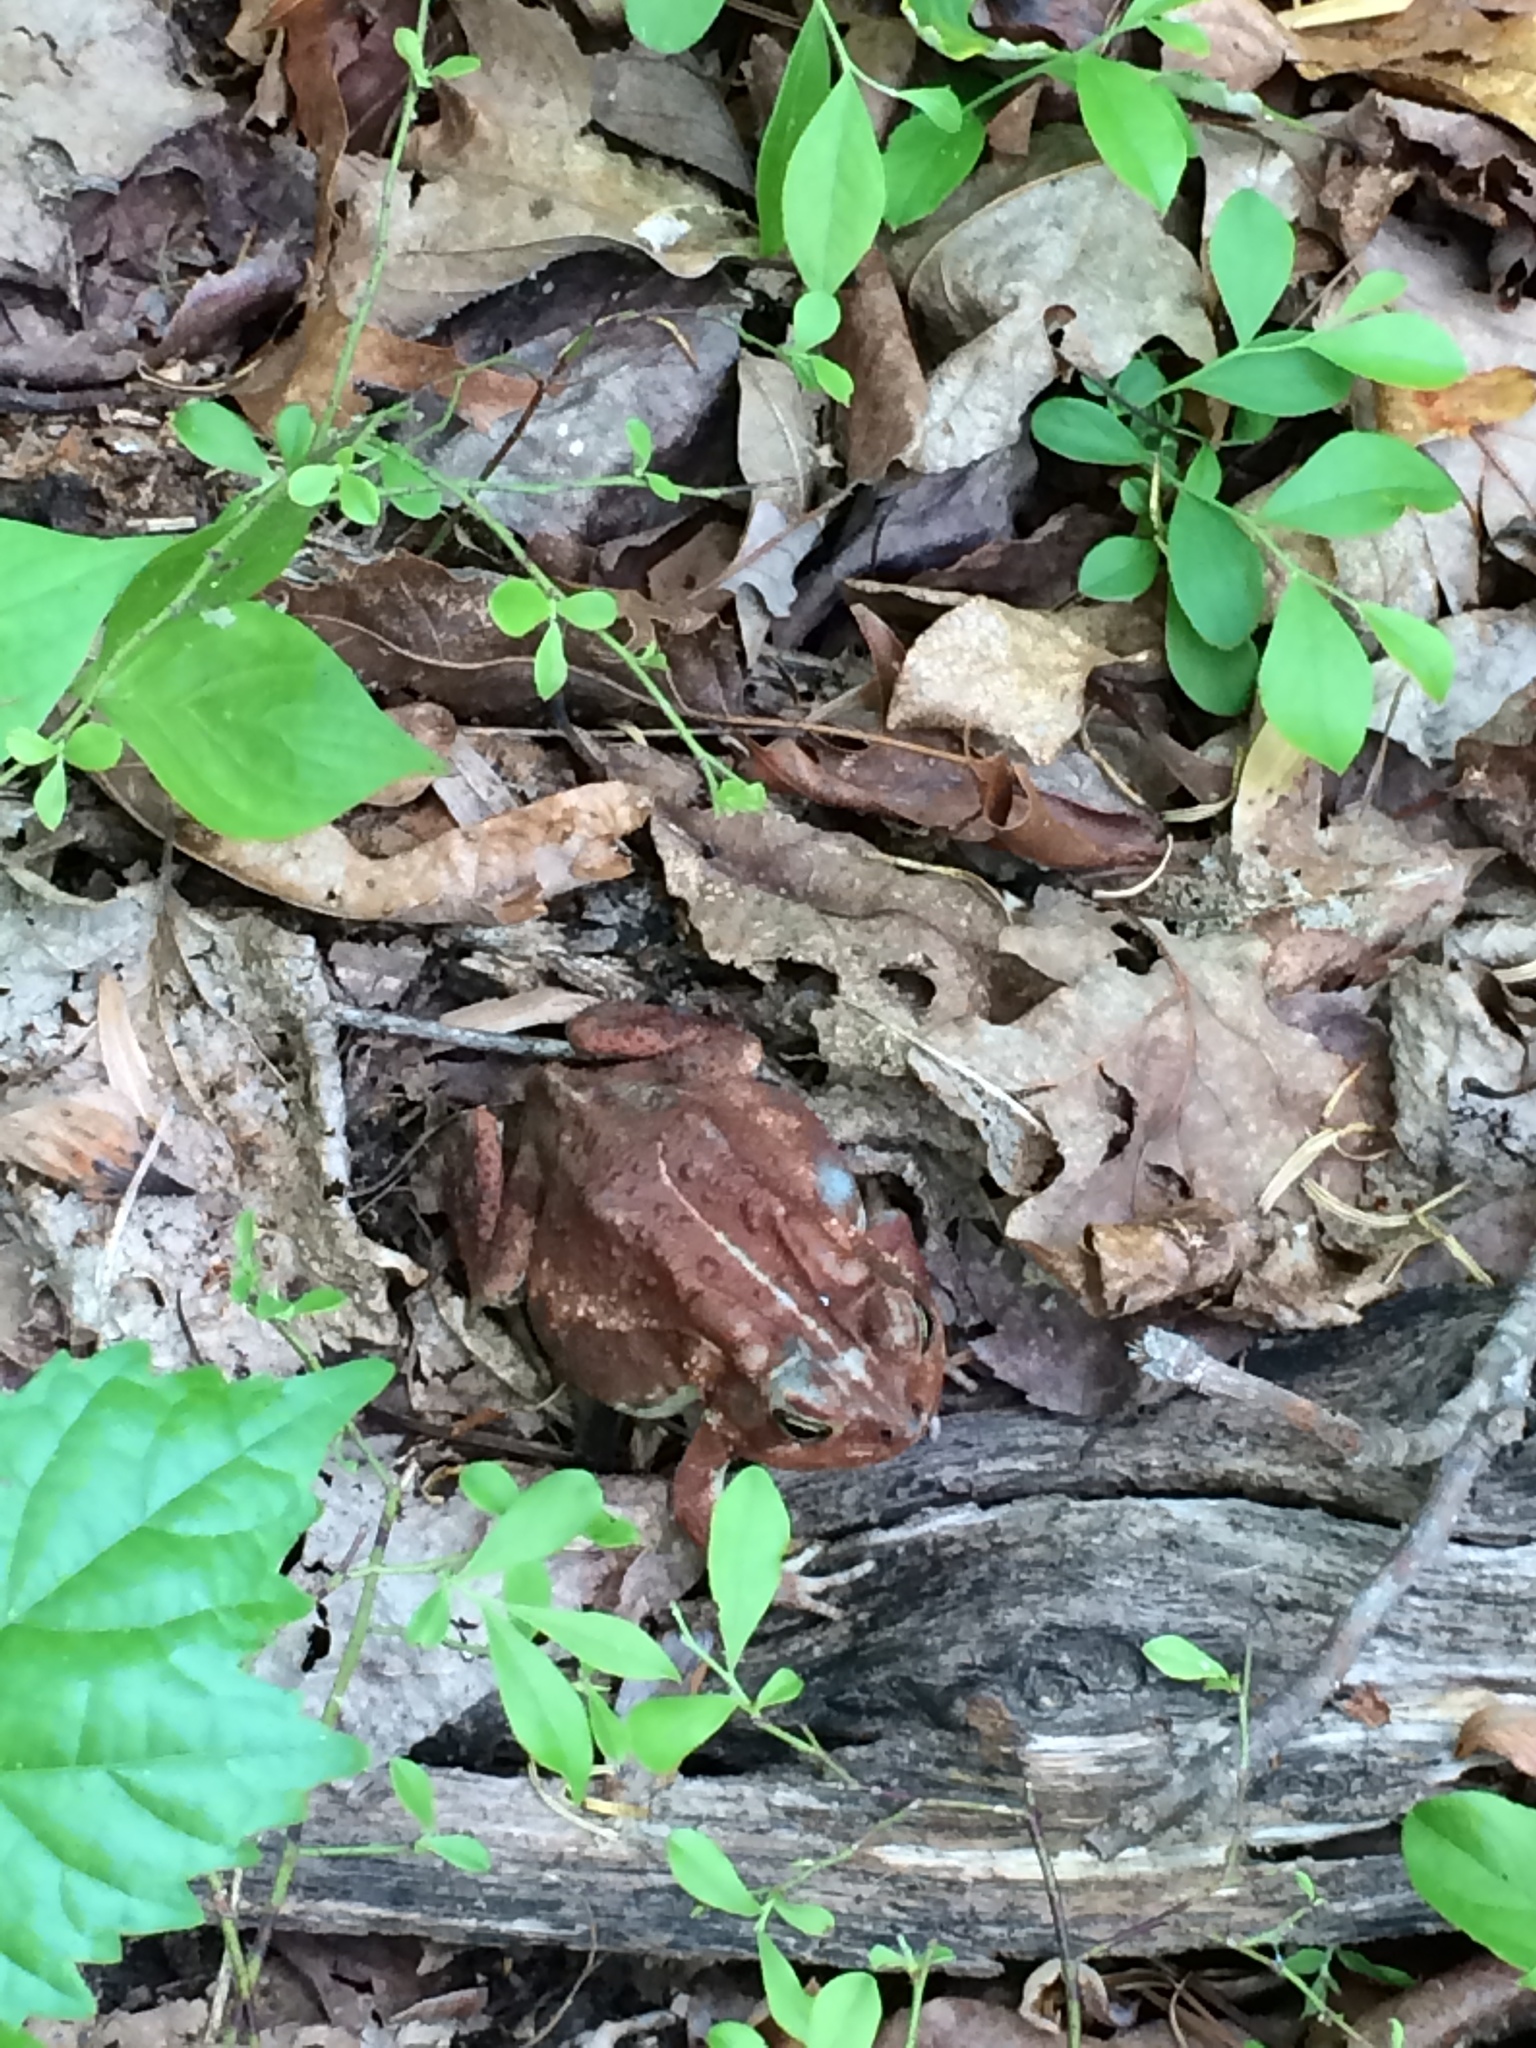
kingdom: Animalia
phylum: Chordata
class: Amphibia
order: Anura
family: Bufonidae
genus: Anaxyrus
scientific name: Anaxyrus americanus
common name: American toad
